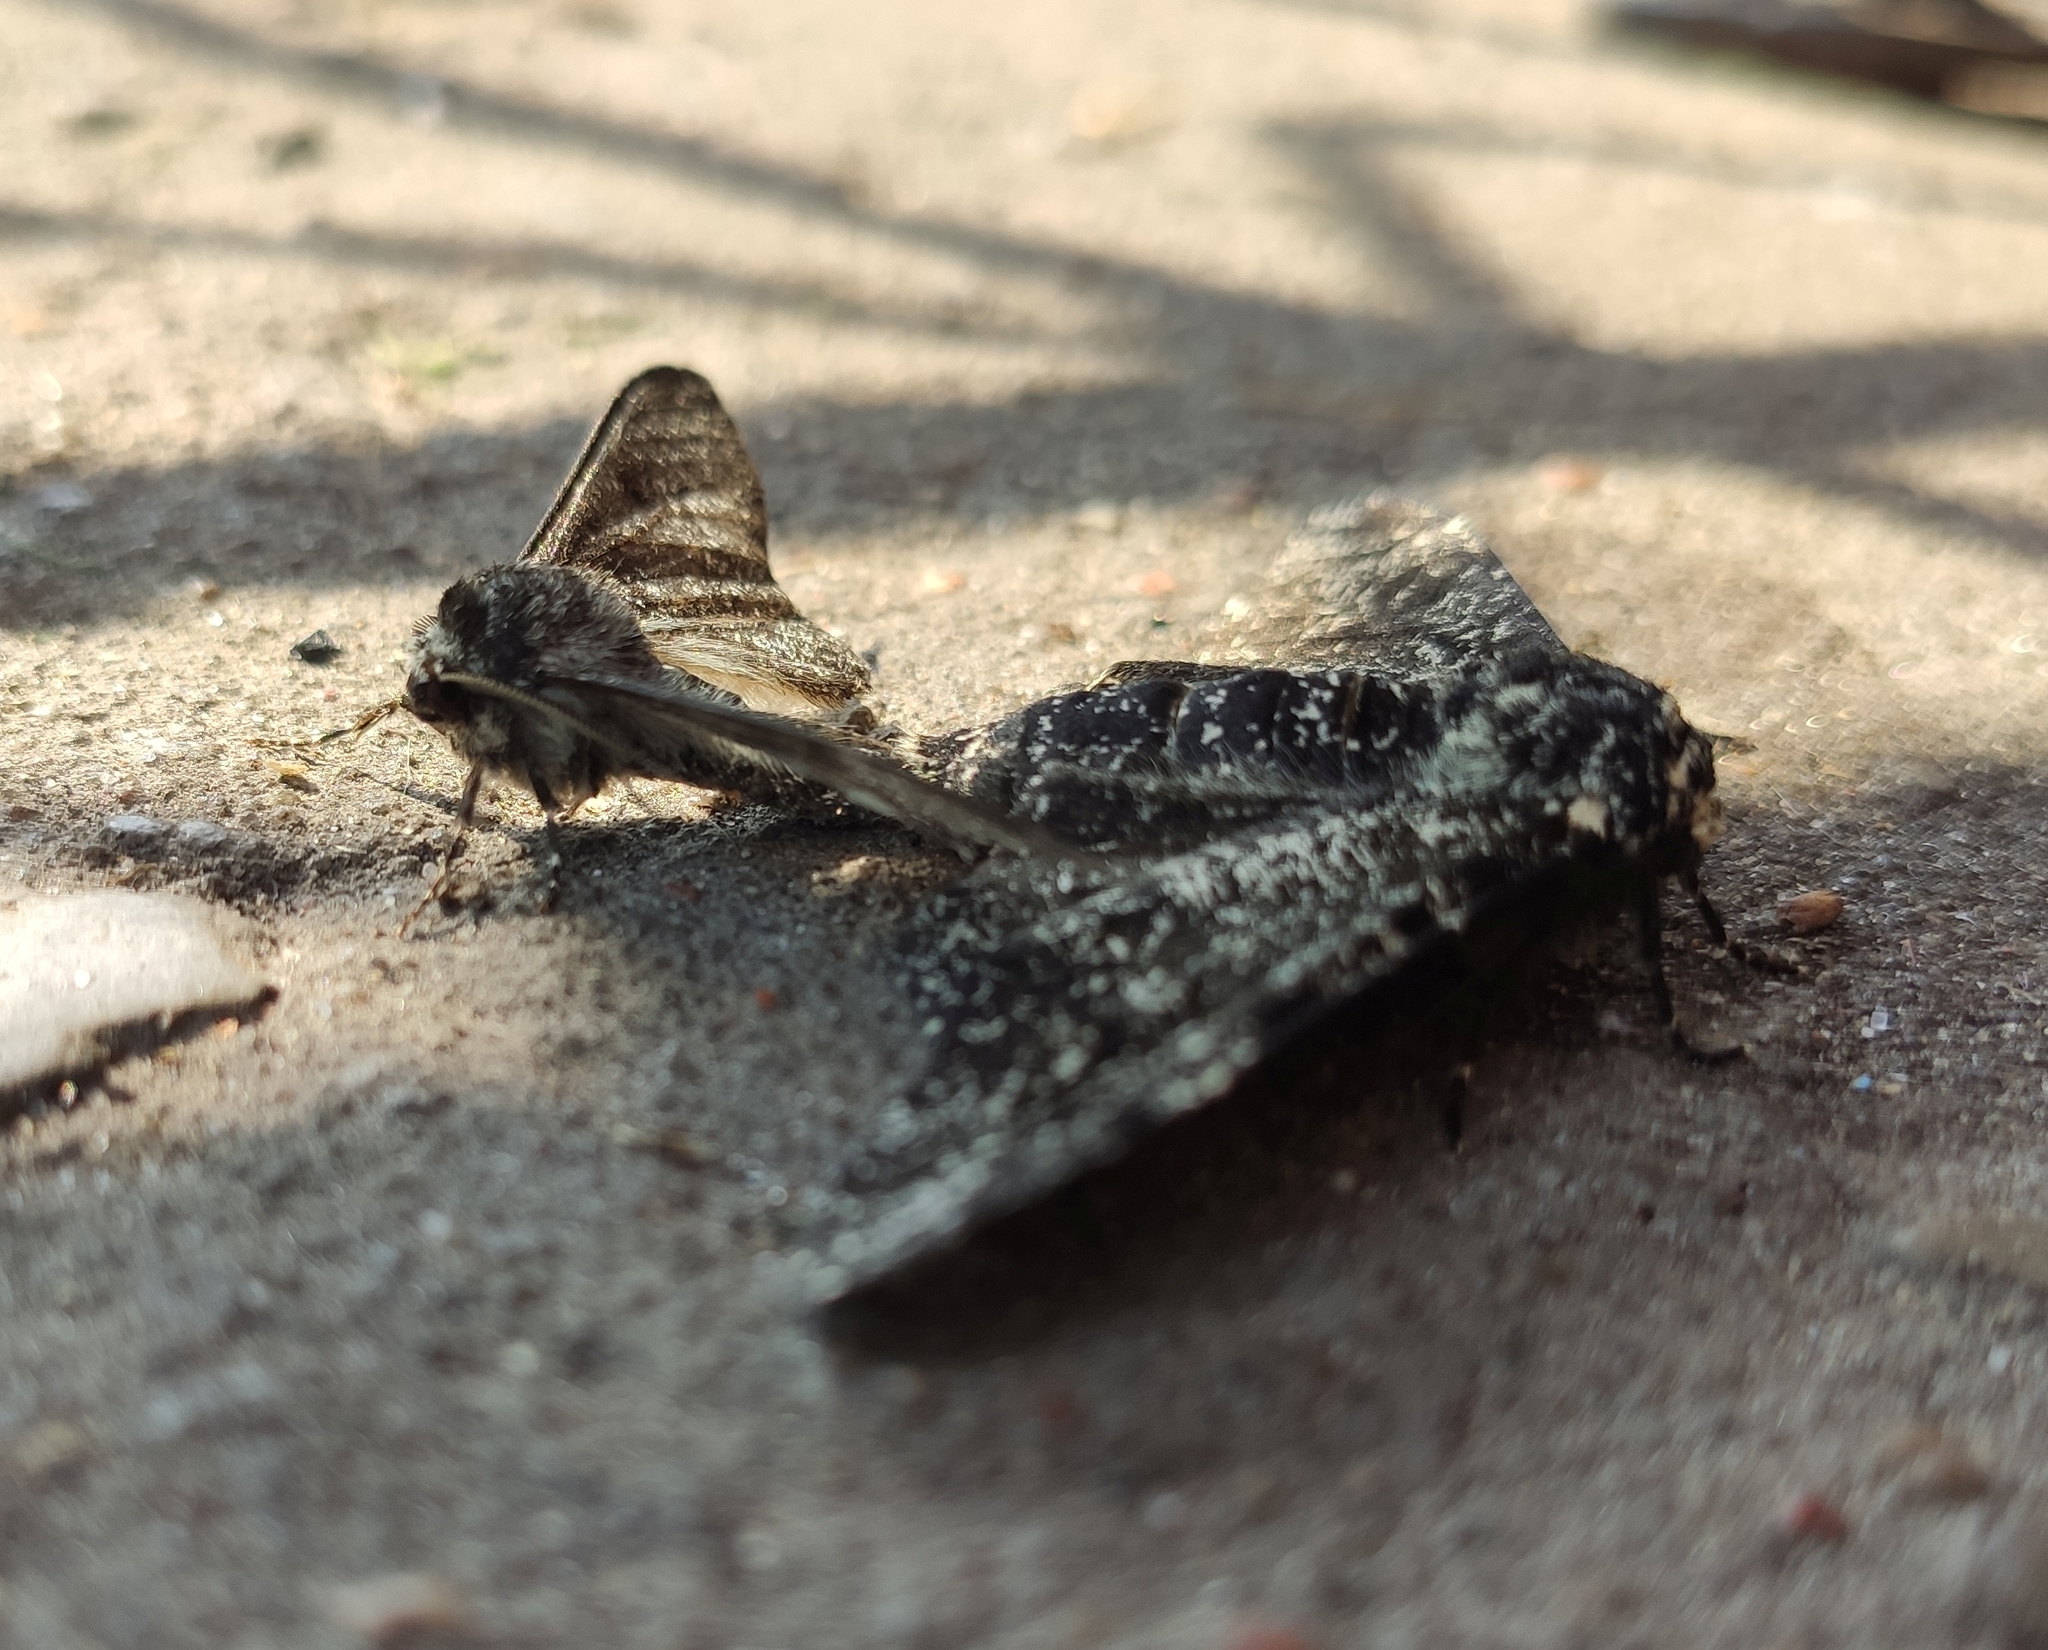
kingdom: Animalia
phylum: Arthropoda
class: Insecta
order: Lepidoptera
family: Geometridae
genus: Biston
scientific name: Biston betularia
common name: Peppered moth
